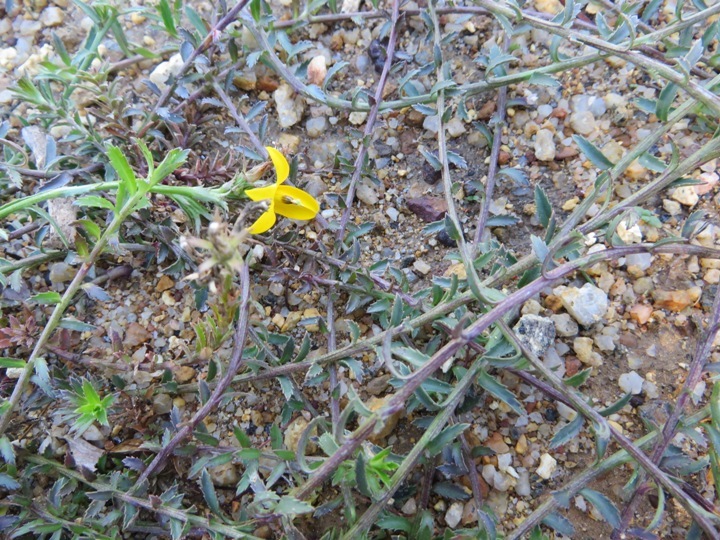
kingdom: Plantae
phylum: Tracheophyta
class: Magnoliopsida
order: Asterales
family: Campanulaceae
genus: Monopsis
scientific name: Monopsis lutea
